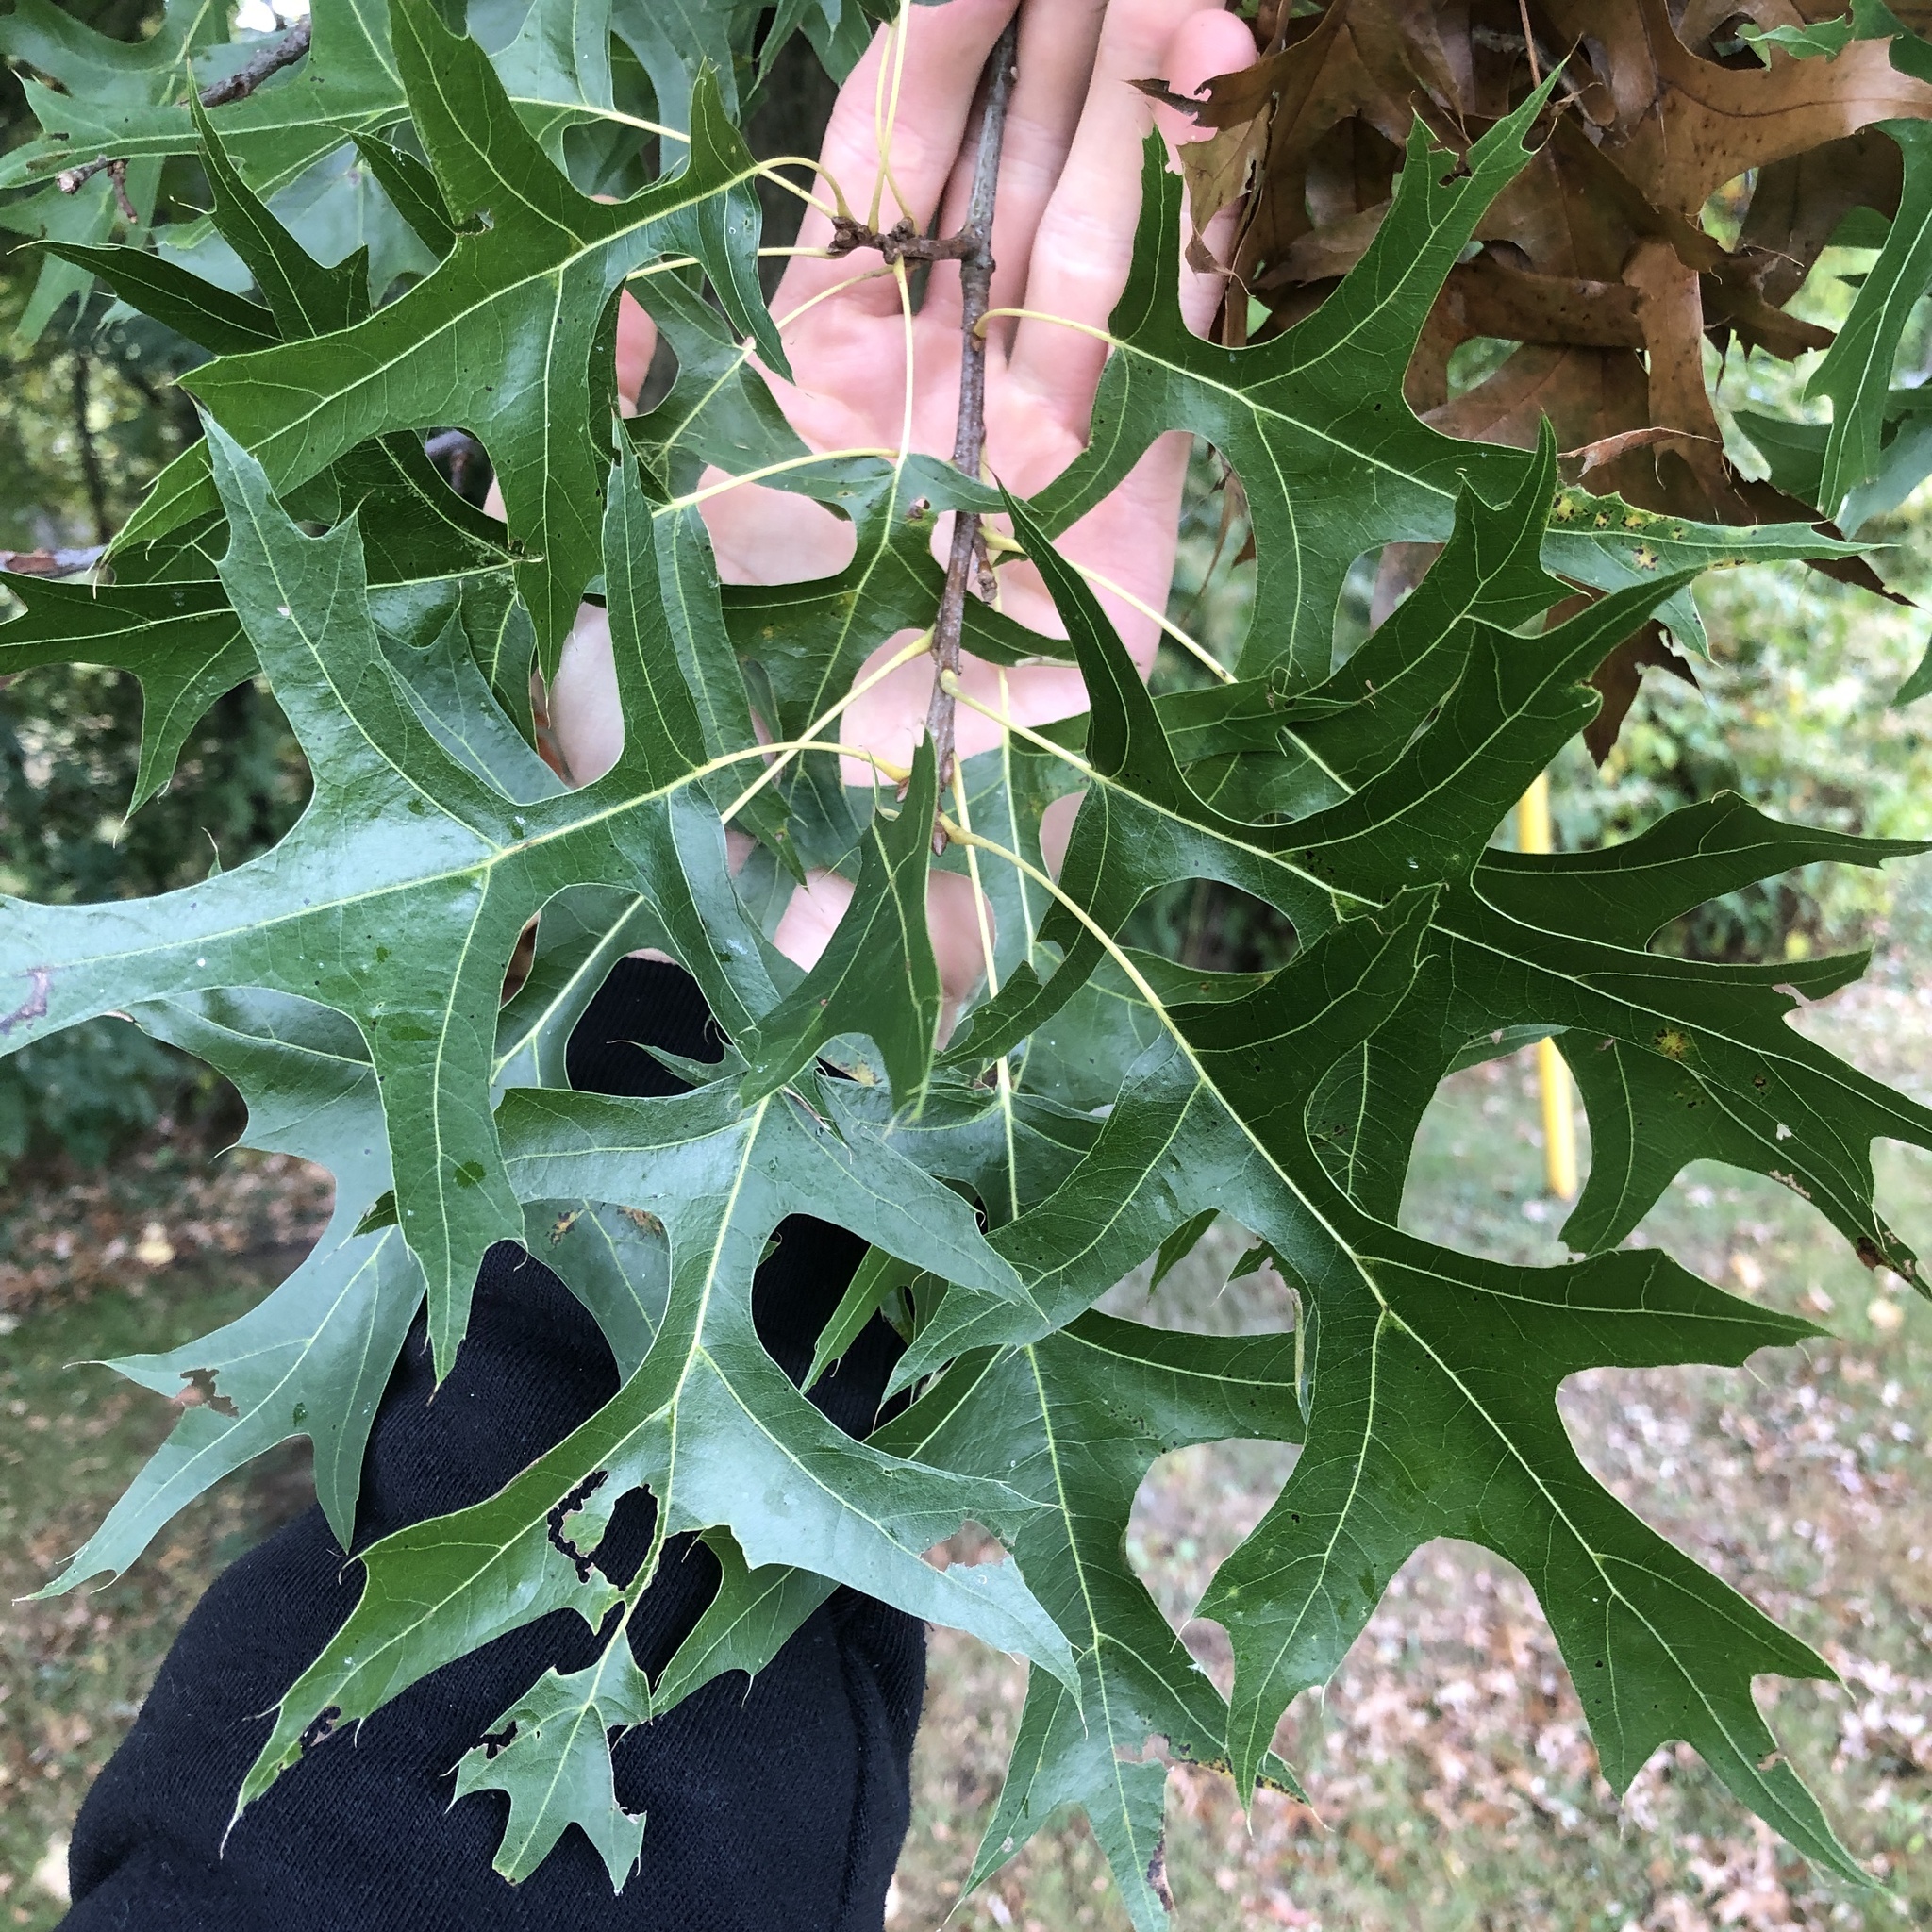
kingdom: Plantae
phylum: Tracheophyta
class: Magnoliopsida
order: Fagales
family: Fagaceae
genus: Quercus
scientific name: Quercus palustris
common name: Pin oak
